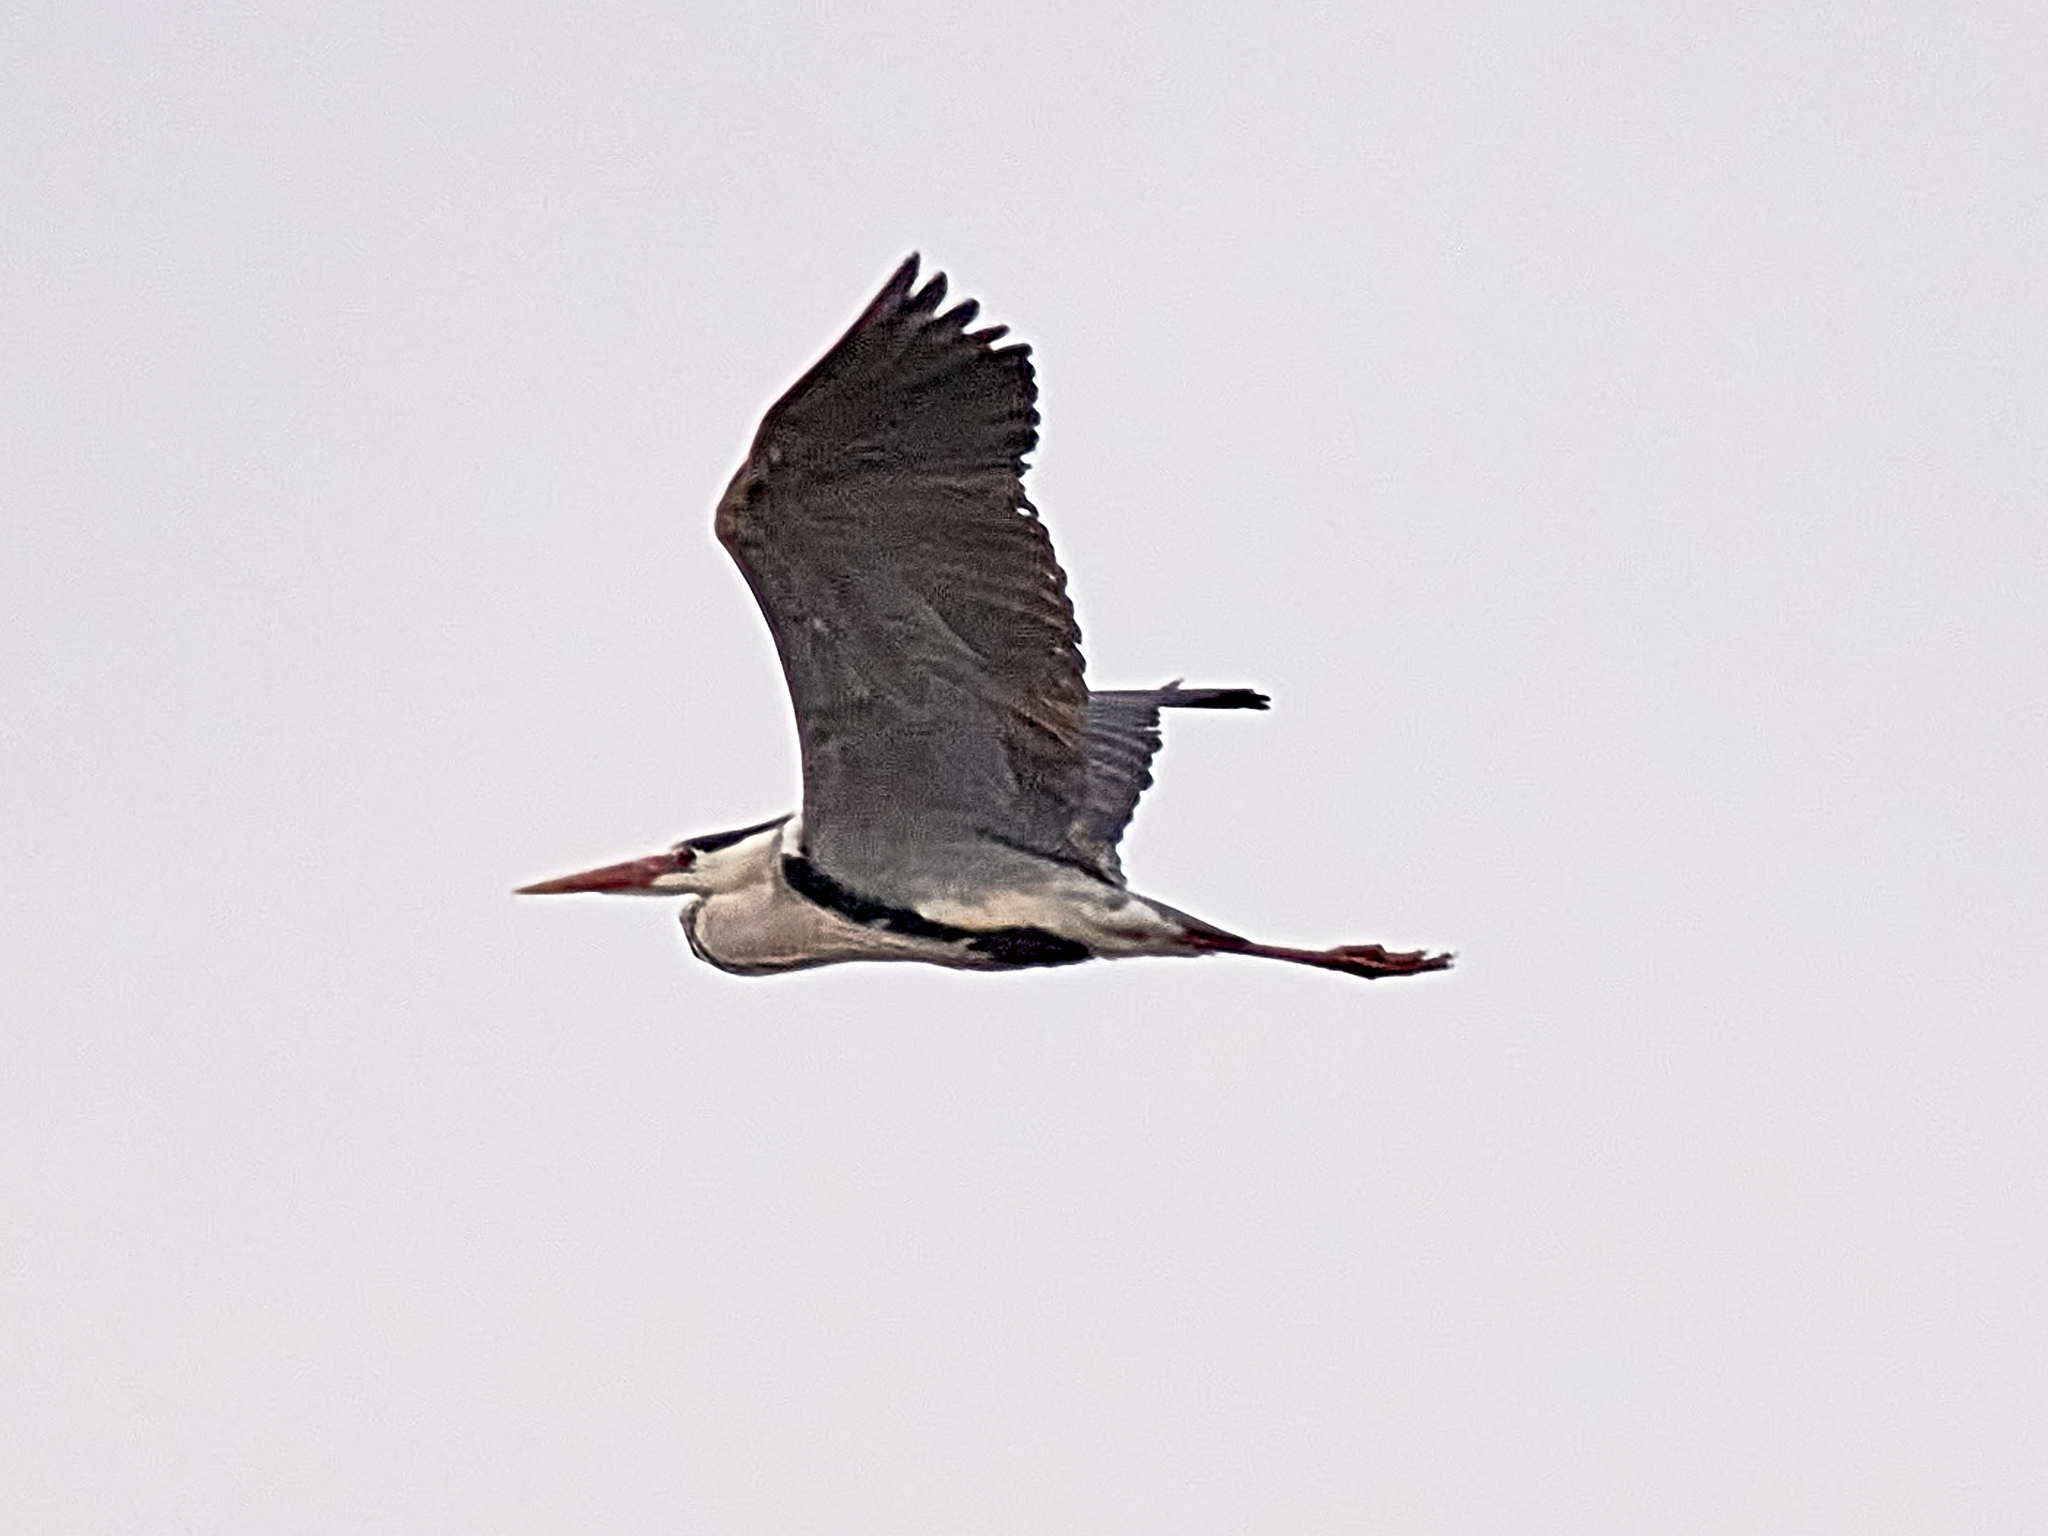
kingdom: Animalia
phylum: Chordata
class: Aves
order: Pelecaniformes
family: Ardeidae
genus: Ardea
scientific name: Ardea cinerea
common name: Grey heron
